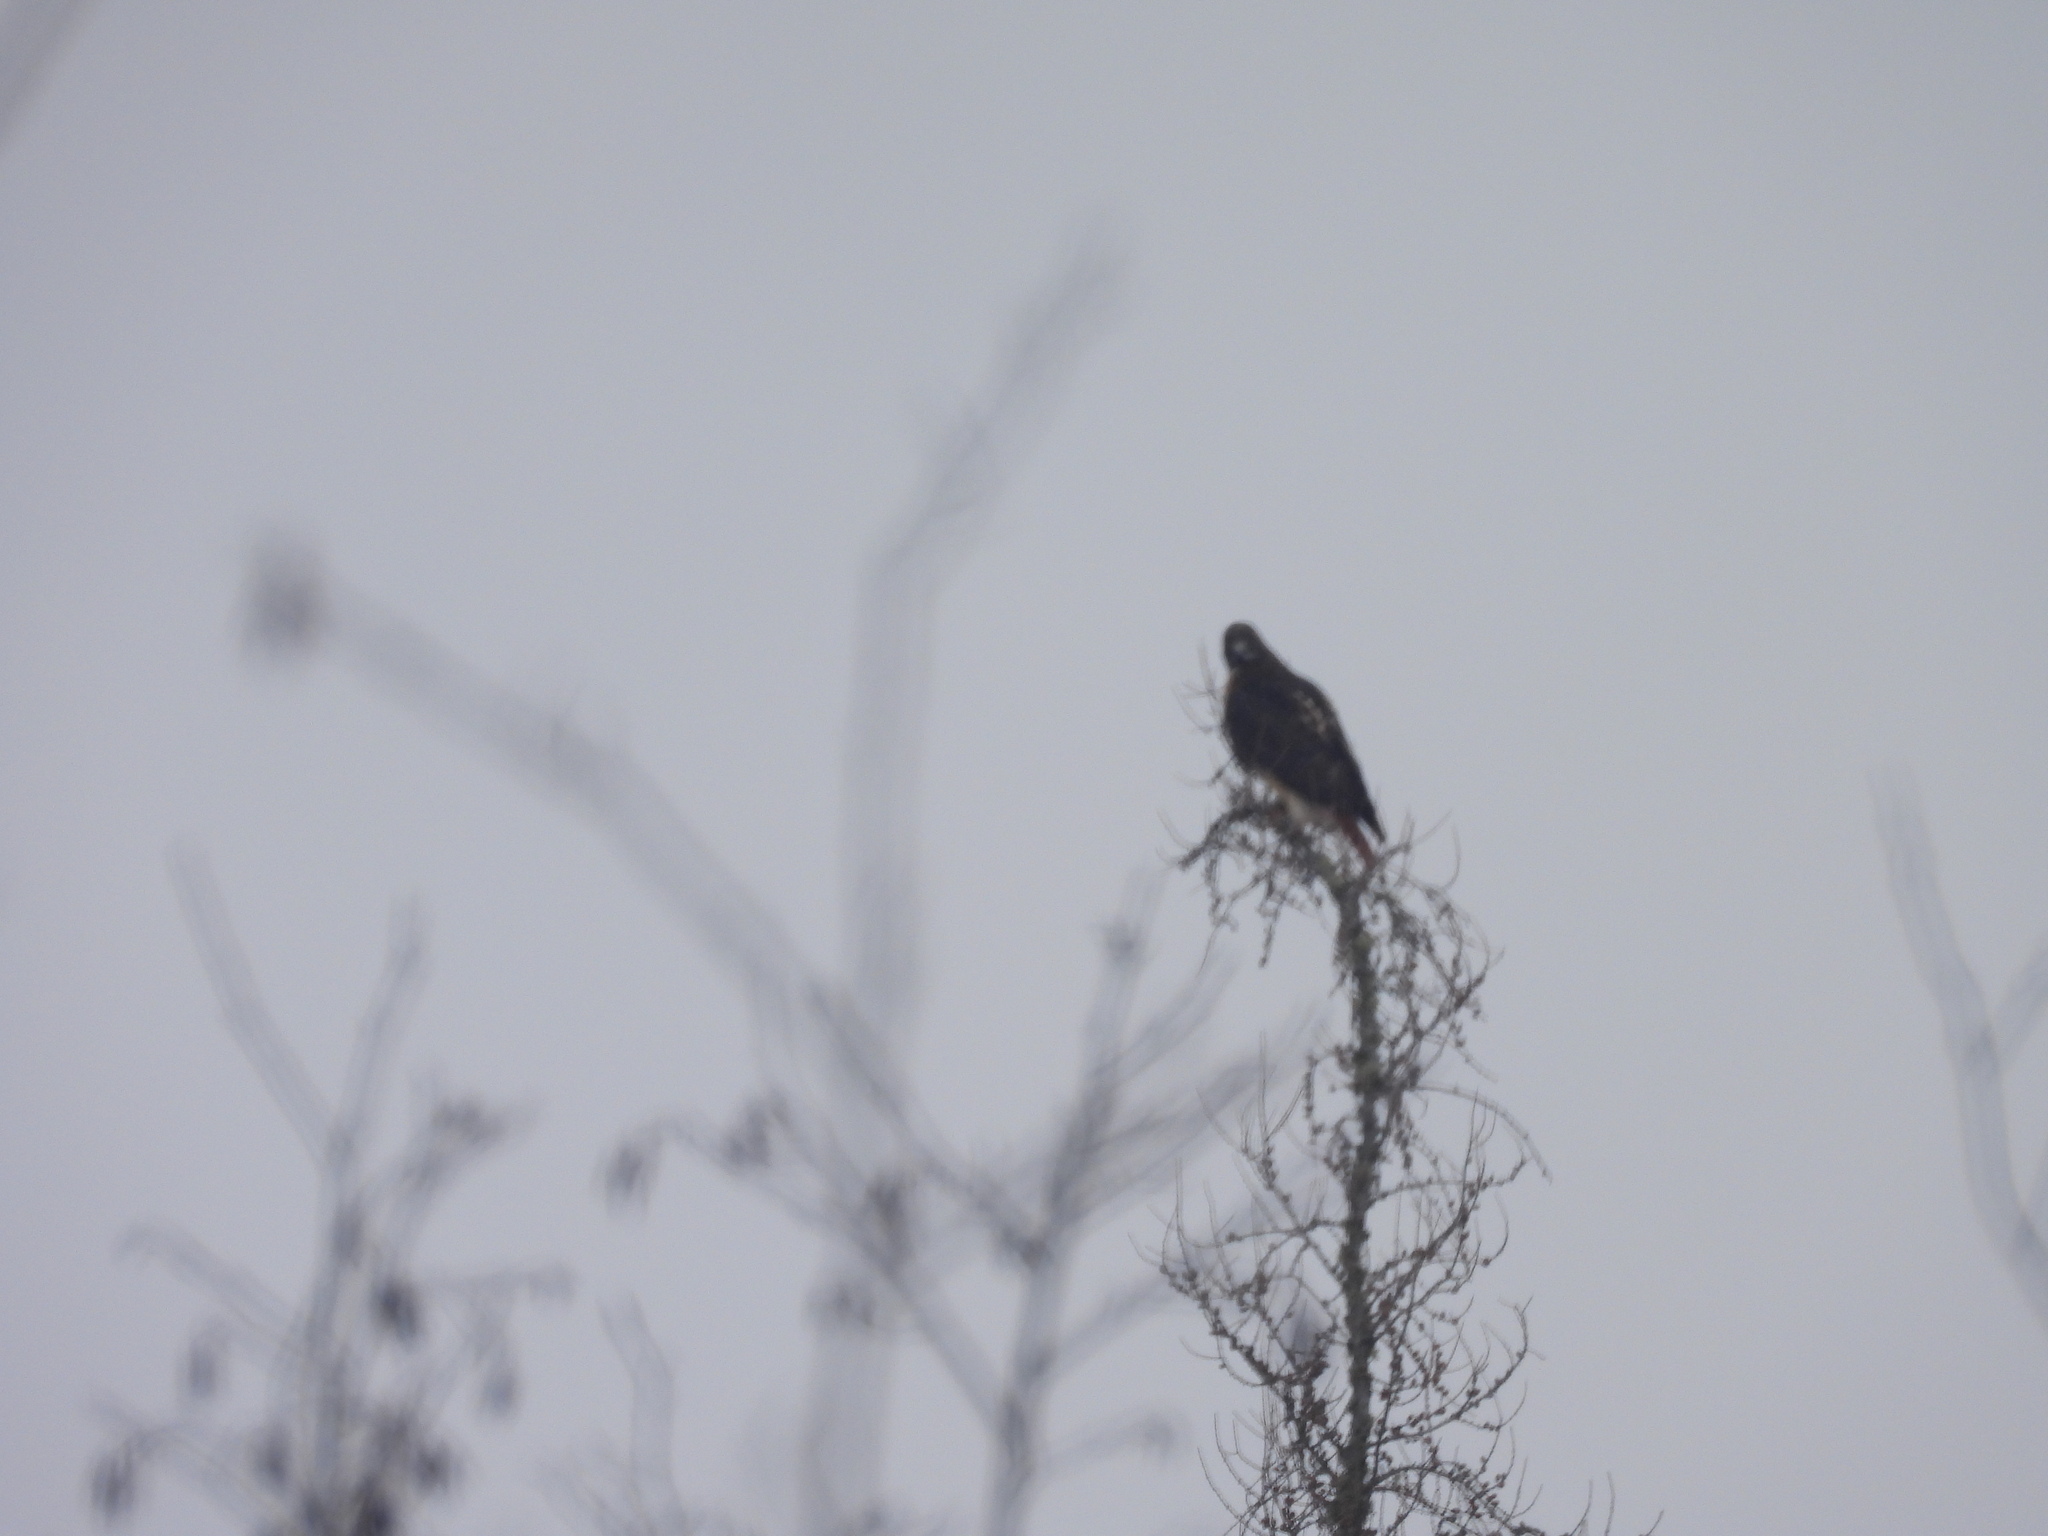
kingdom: Animalia
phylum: Chordata
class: Aves
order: Accipitriformes
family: Accipitridae
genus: Buteo
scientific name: Buteo jamaicensis
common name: Red-tailed hawk
